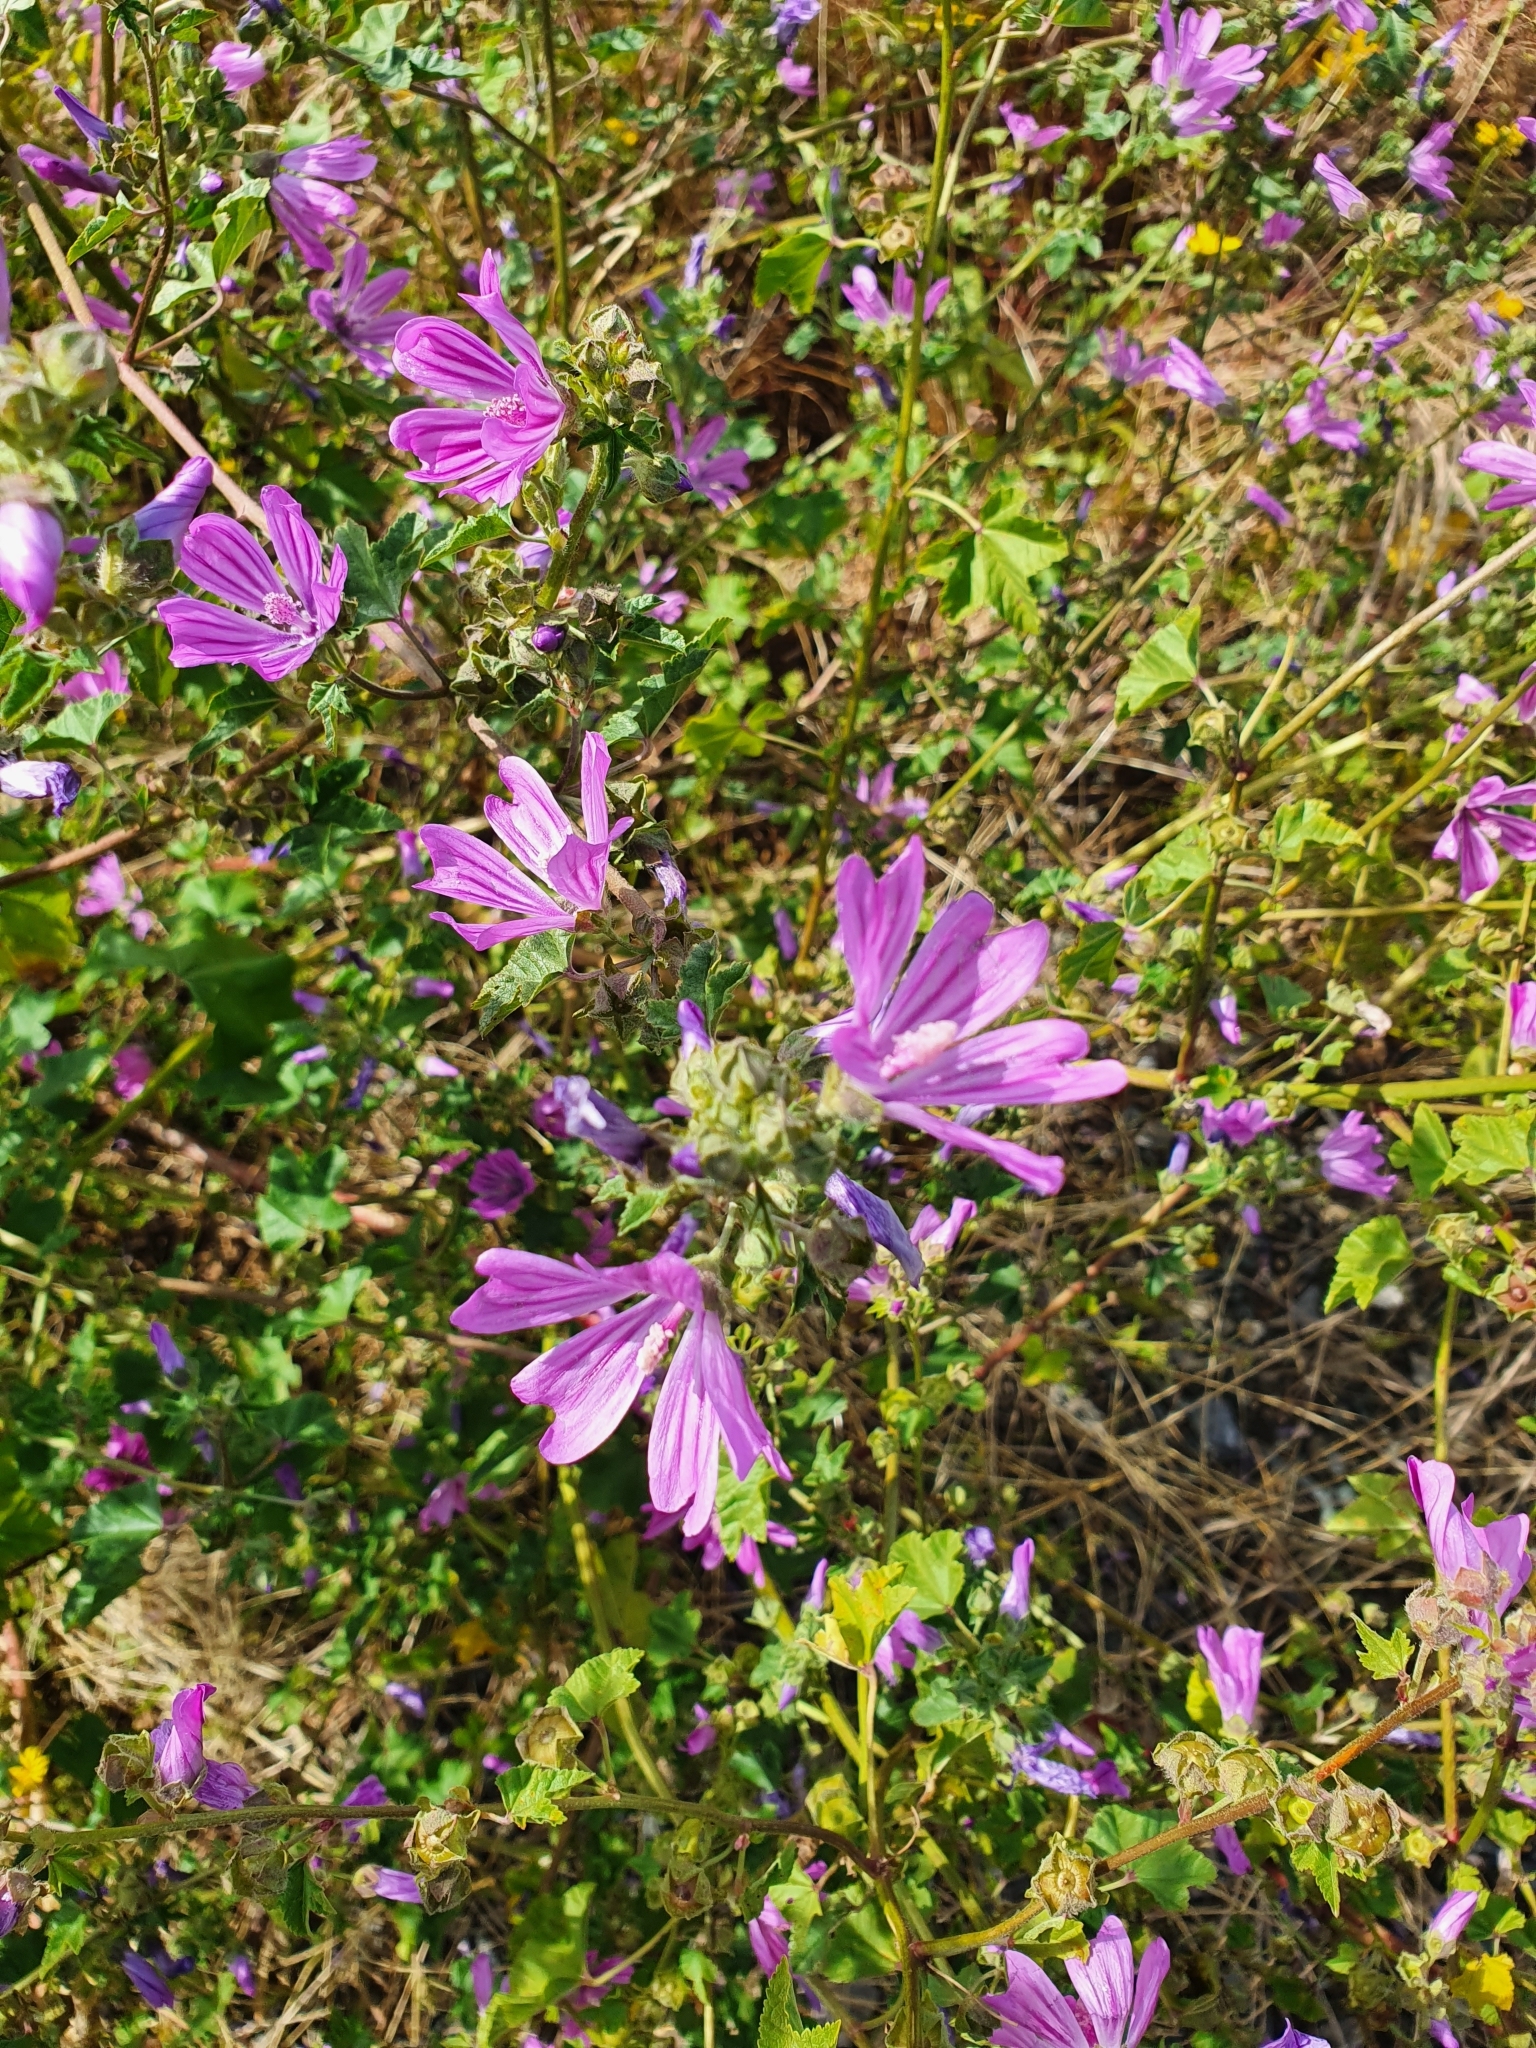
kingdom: Plantae
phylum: Tracheophyta
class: Magnoliopsida
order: Malvales
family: Malvaceae
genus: Malva
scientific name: Malva sylvestris
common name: Common mallow
